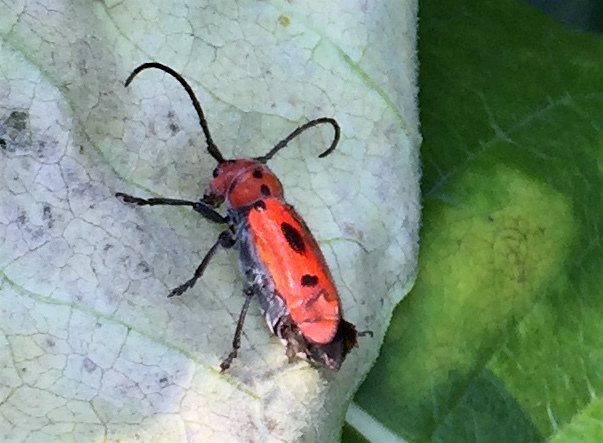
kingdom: Animalia
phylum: Arthropoda
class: Insecta
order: Coleoptera
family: Cerambycidae
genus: Tetraopes
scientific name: Tetraopes tetrophthalmus
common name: Red milkweed beetle
